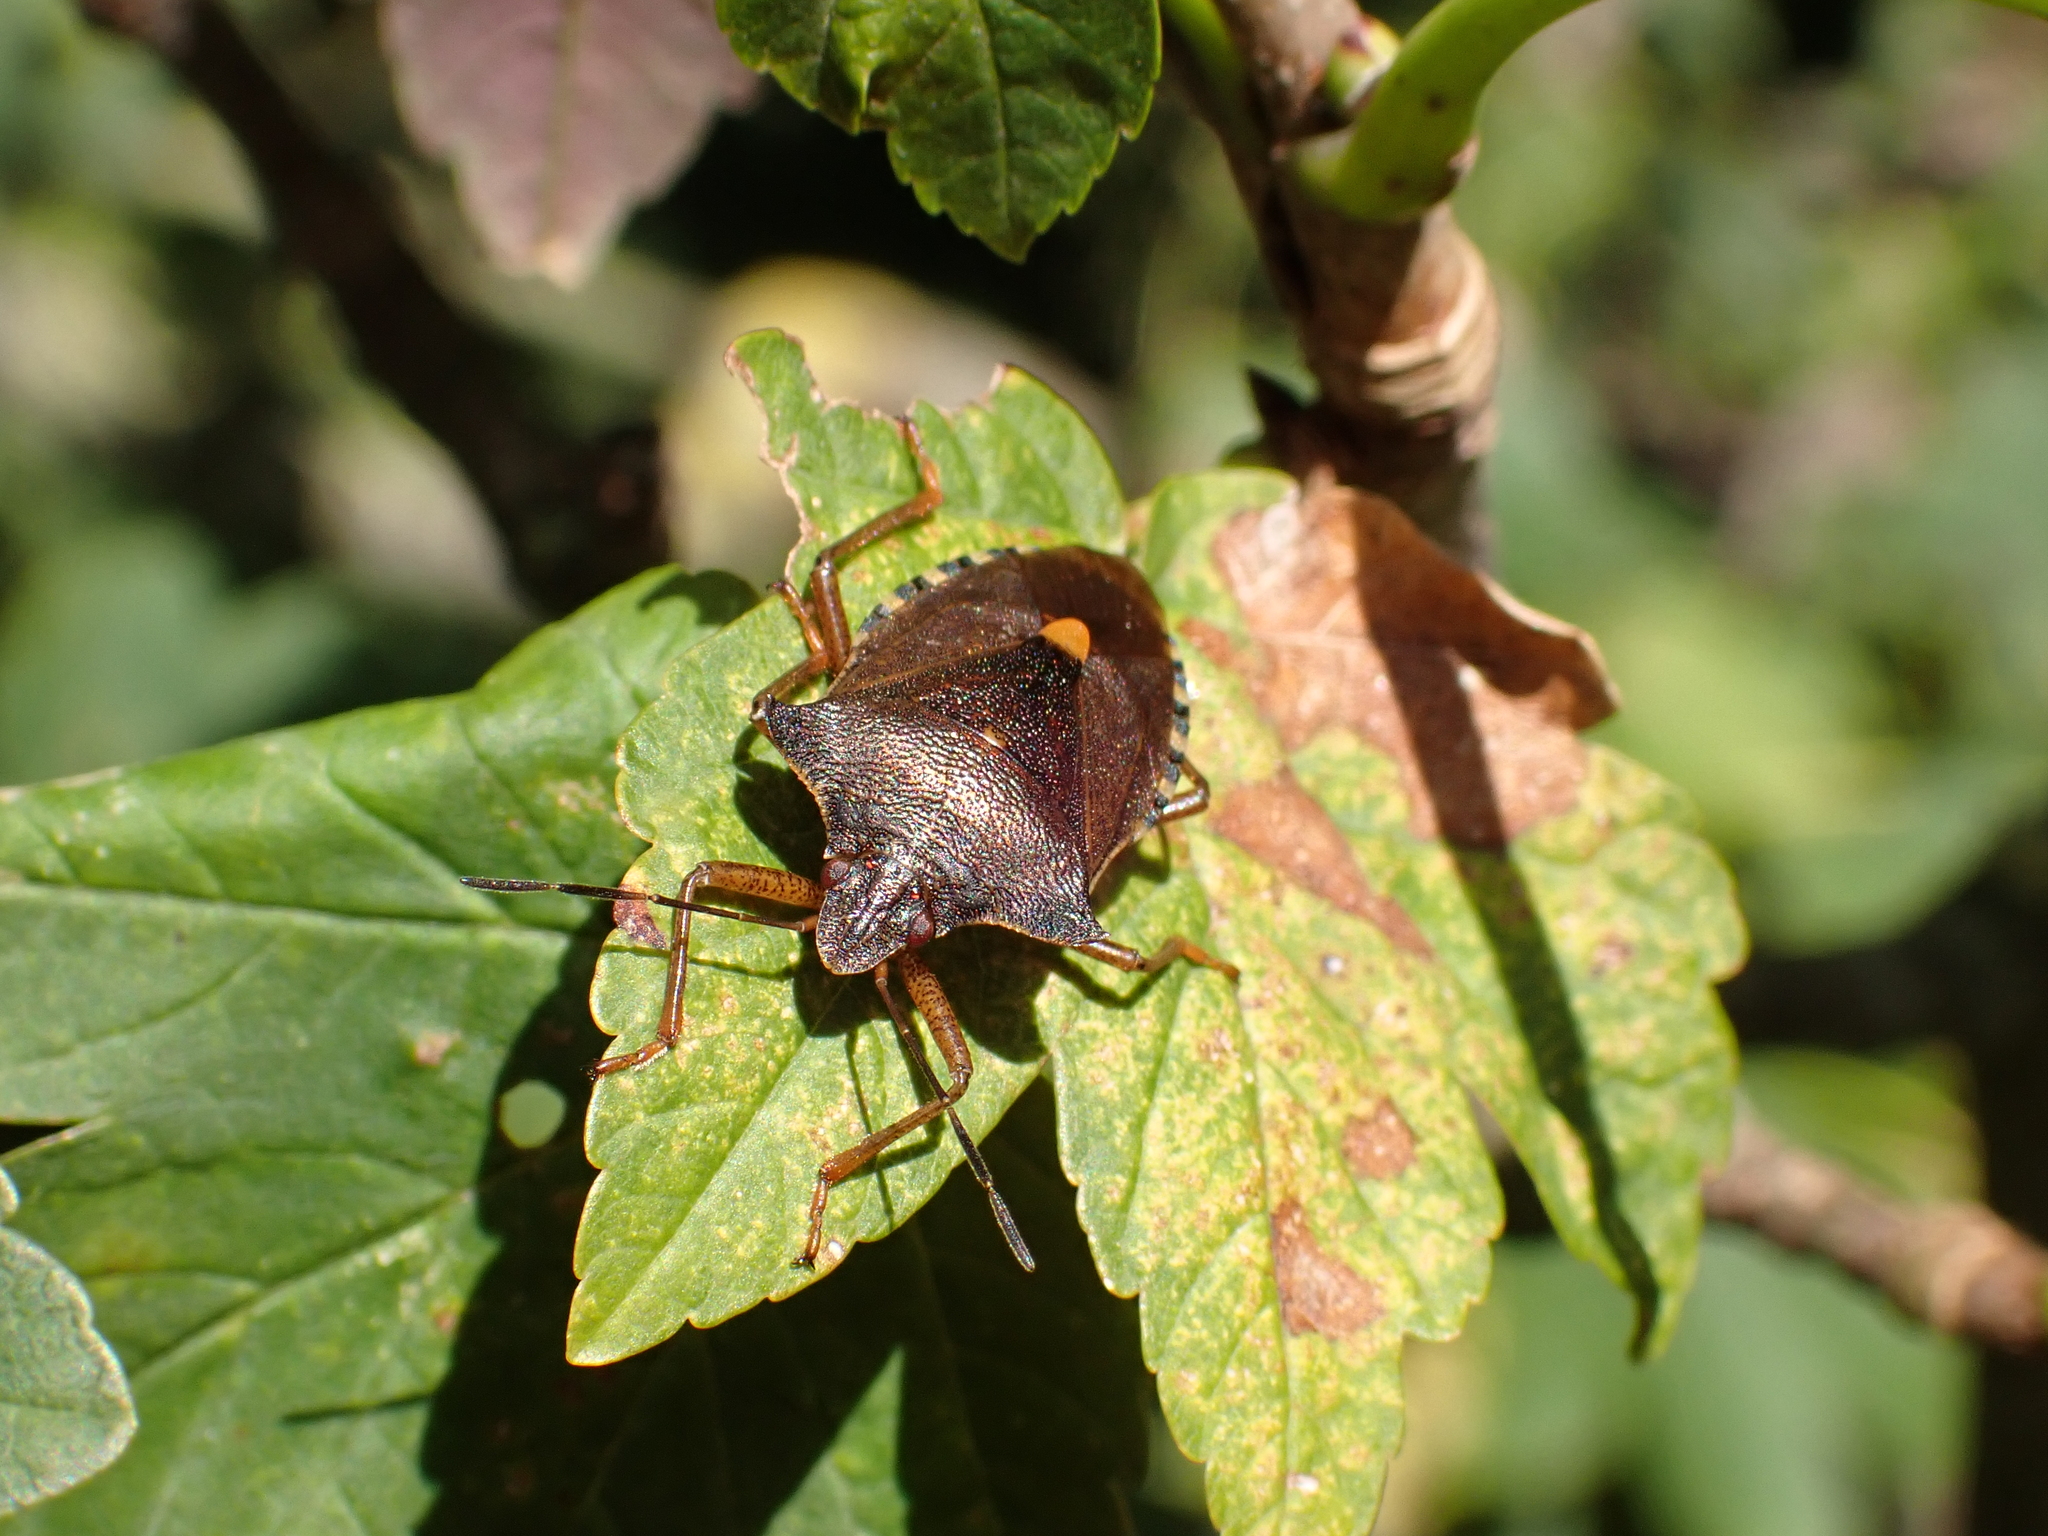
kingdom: Animalia
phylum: Arthropoda
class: Insecta
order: Hemiptera
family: Pentatomidae
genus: Pentatoma
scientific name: Pentatoma rufipes
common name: Forest bug
